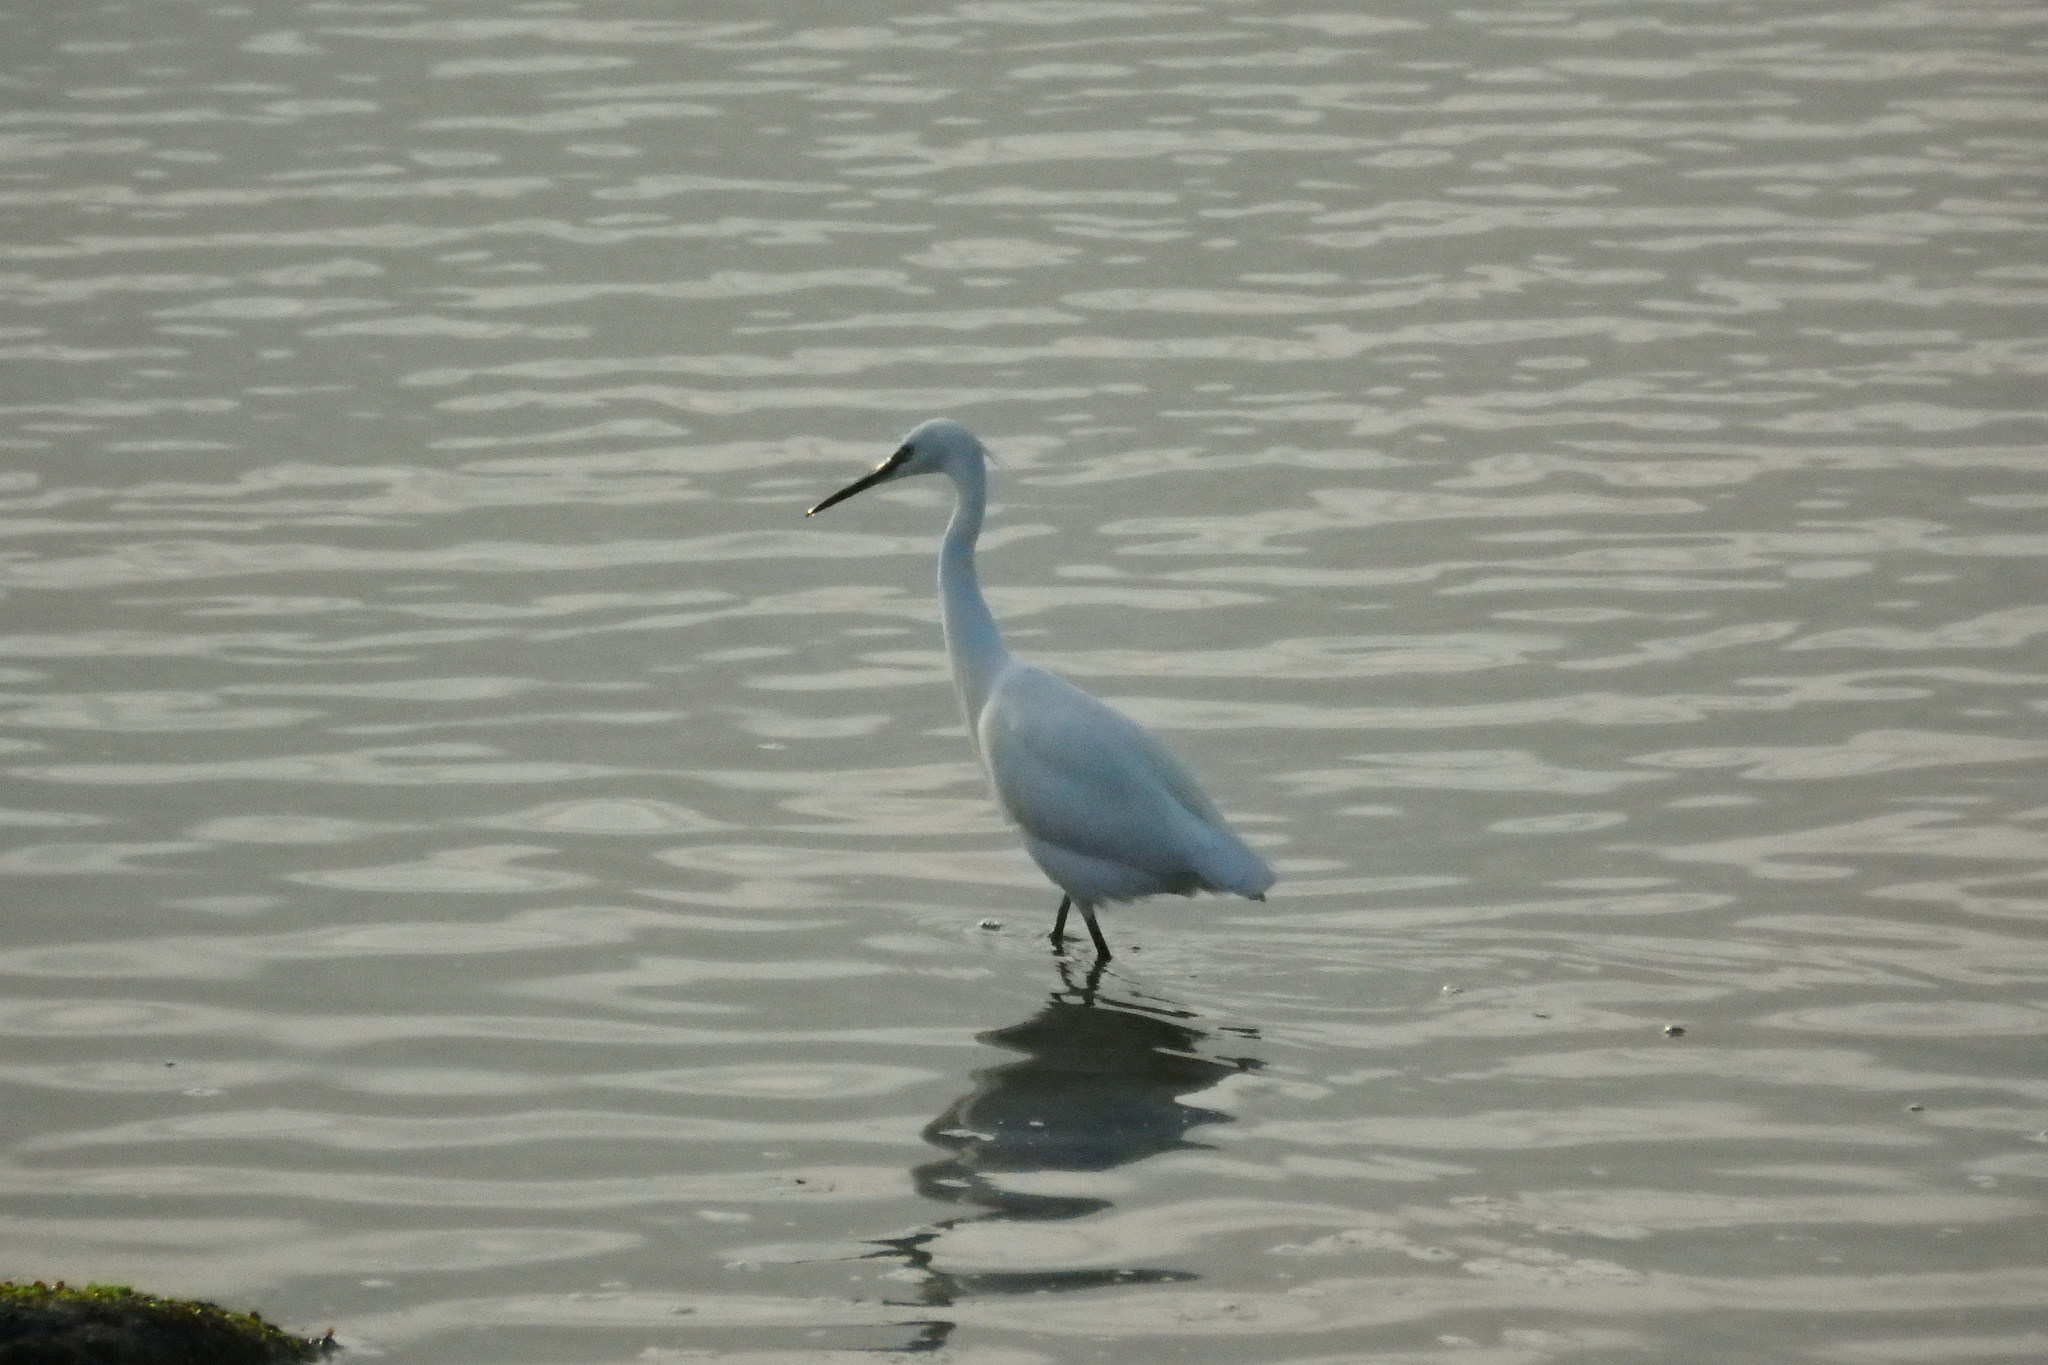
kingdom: Animalia
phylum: Chordata
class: Aves
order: Pelecaniformes
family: Ardeidae
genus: Egretta
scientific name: Egretta garzetta
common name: Little egret
